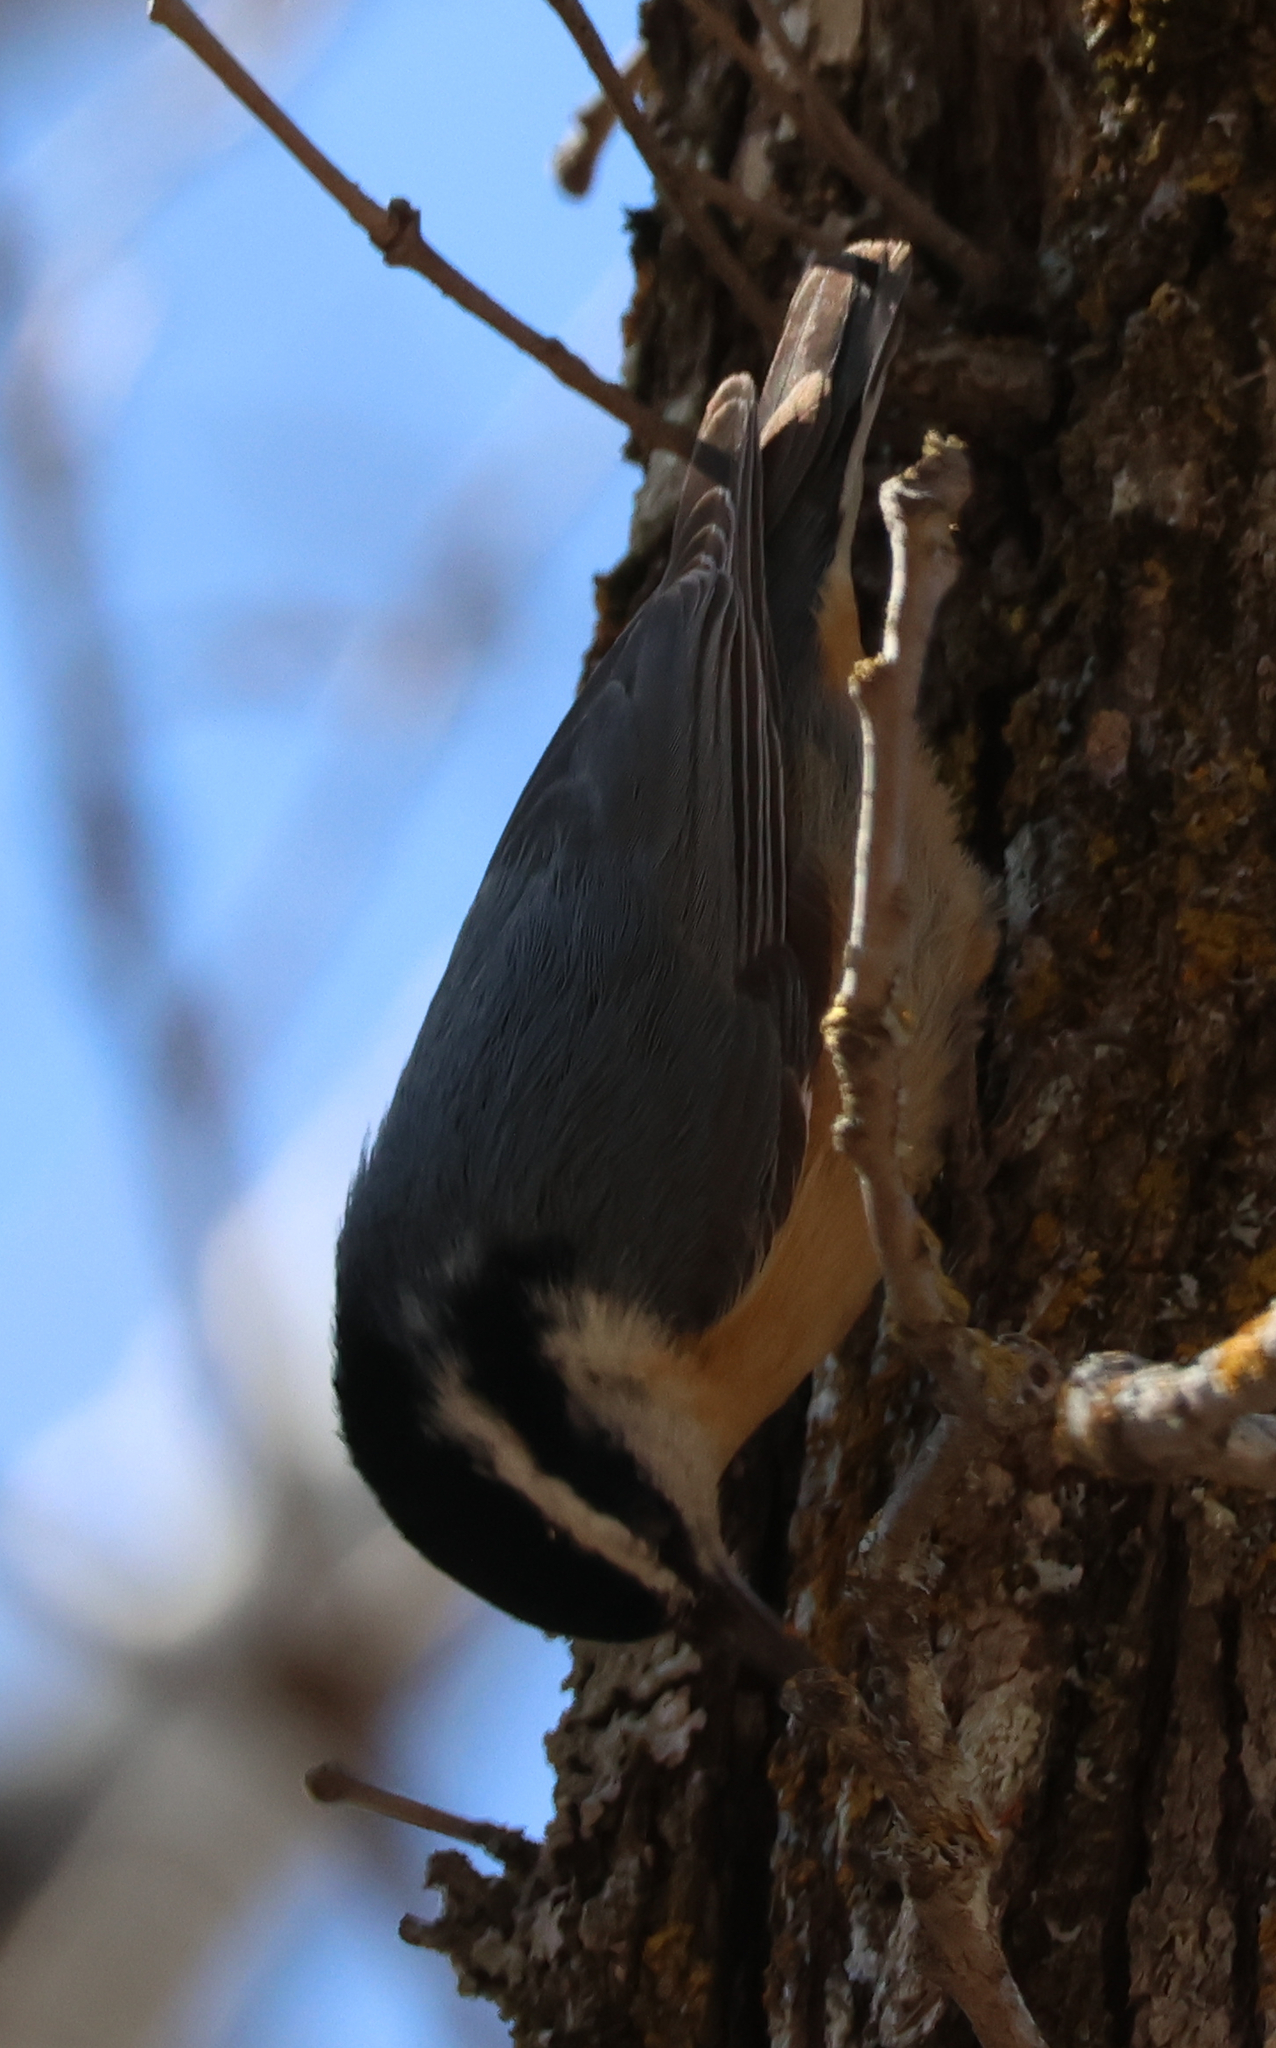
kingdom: Animalia
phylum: Chordata
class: Aves
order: Passeriformes
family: Sittidae
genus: Sitta
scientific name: Sitta canadensis
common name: Red-breasted nuthatch
